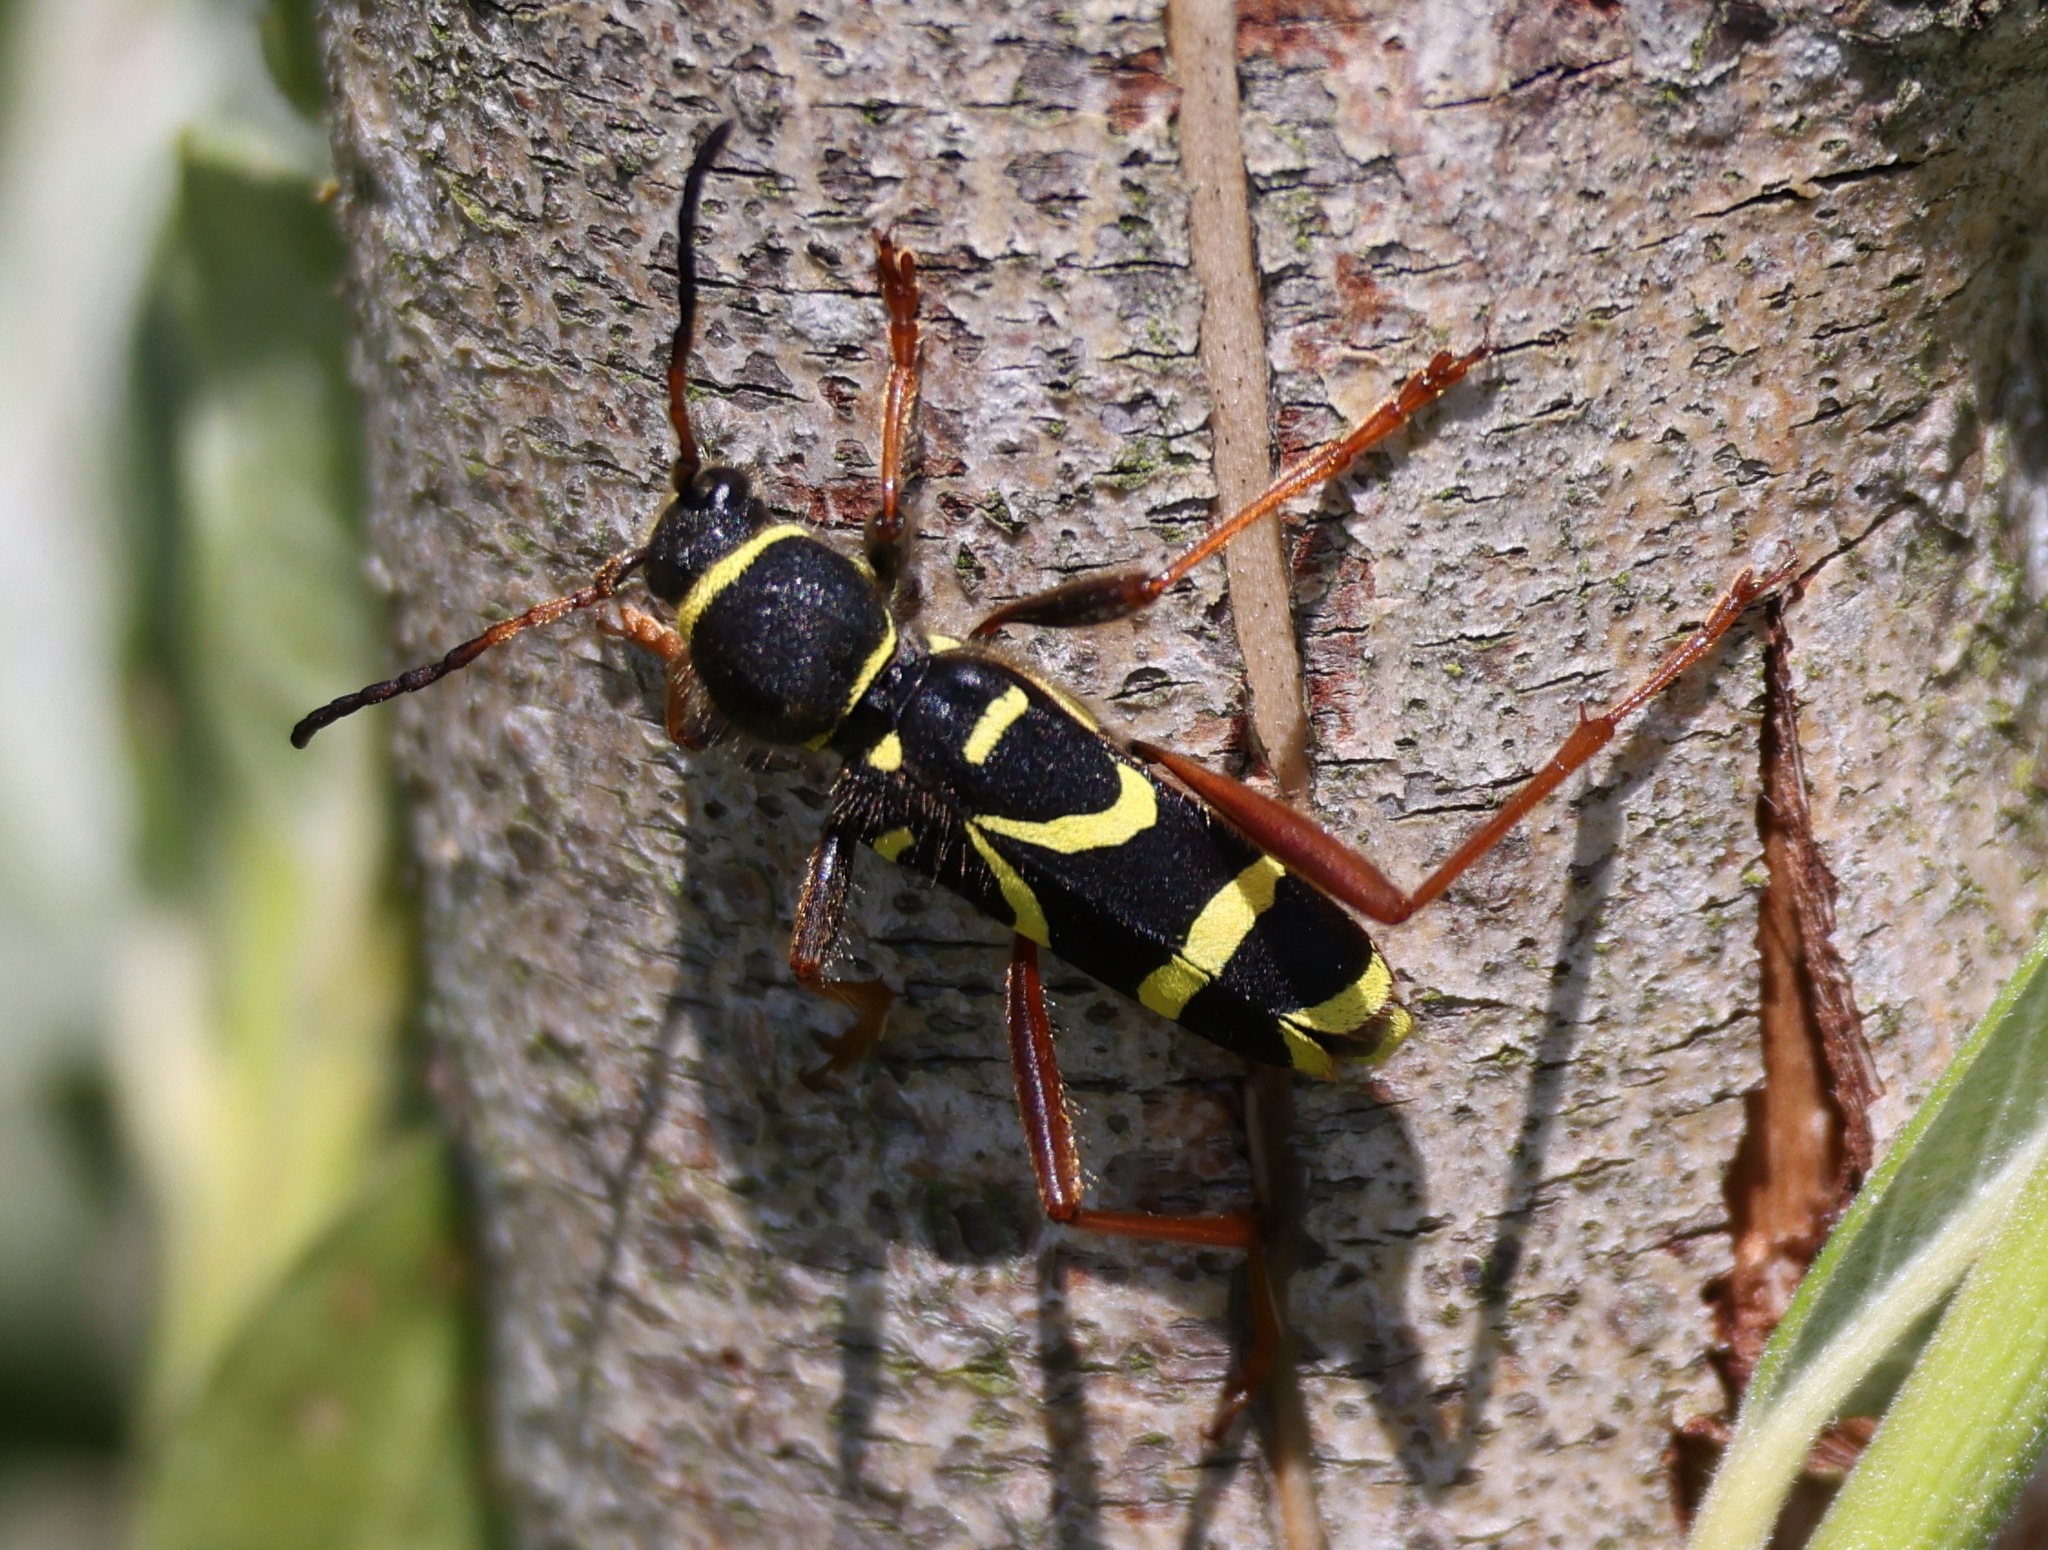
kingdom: Animalia
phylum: Arthropoda
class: Insecta
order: Coleoptera
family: Cerambycidae
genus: Clytus
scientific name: Clytus arietis
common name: Wasp beetle
